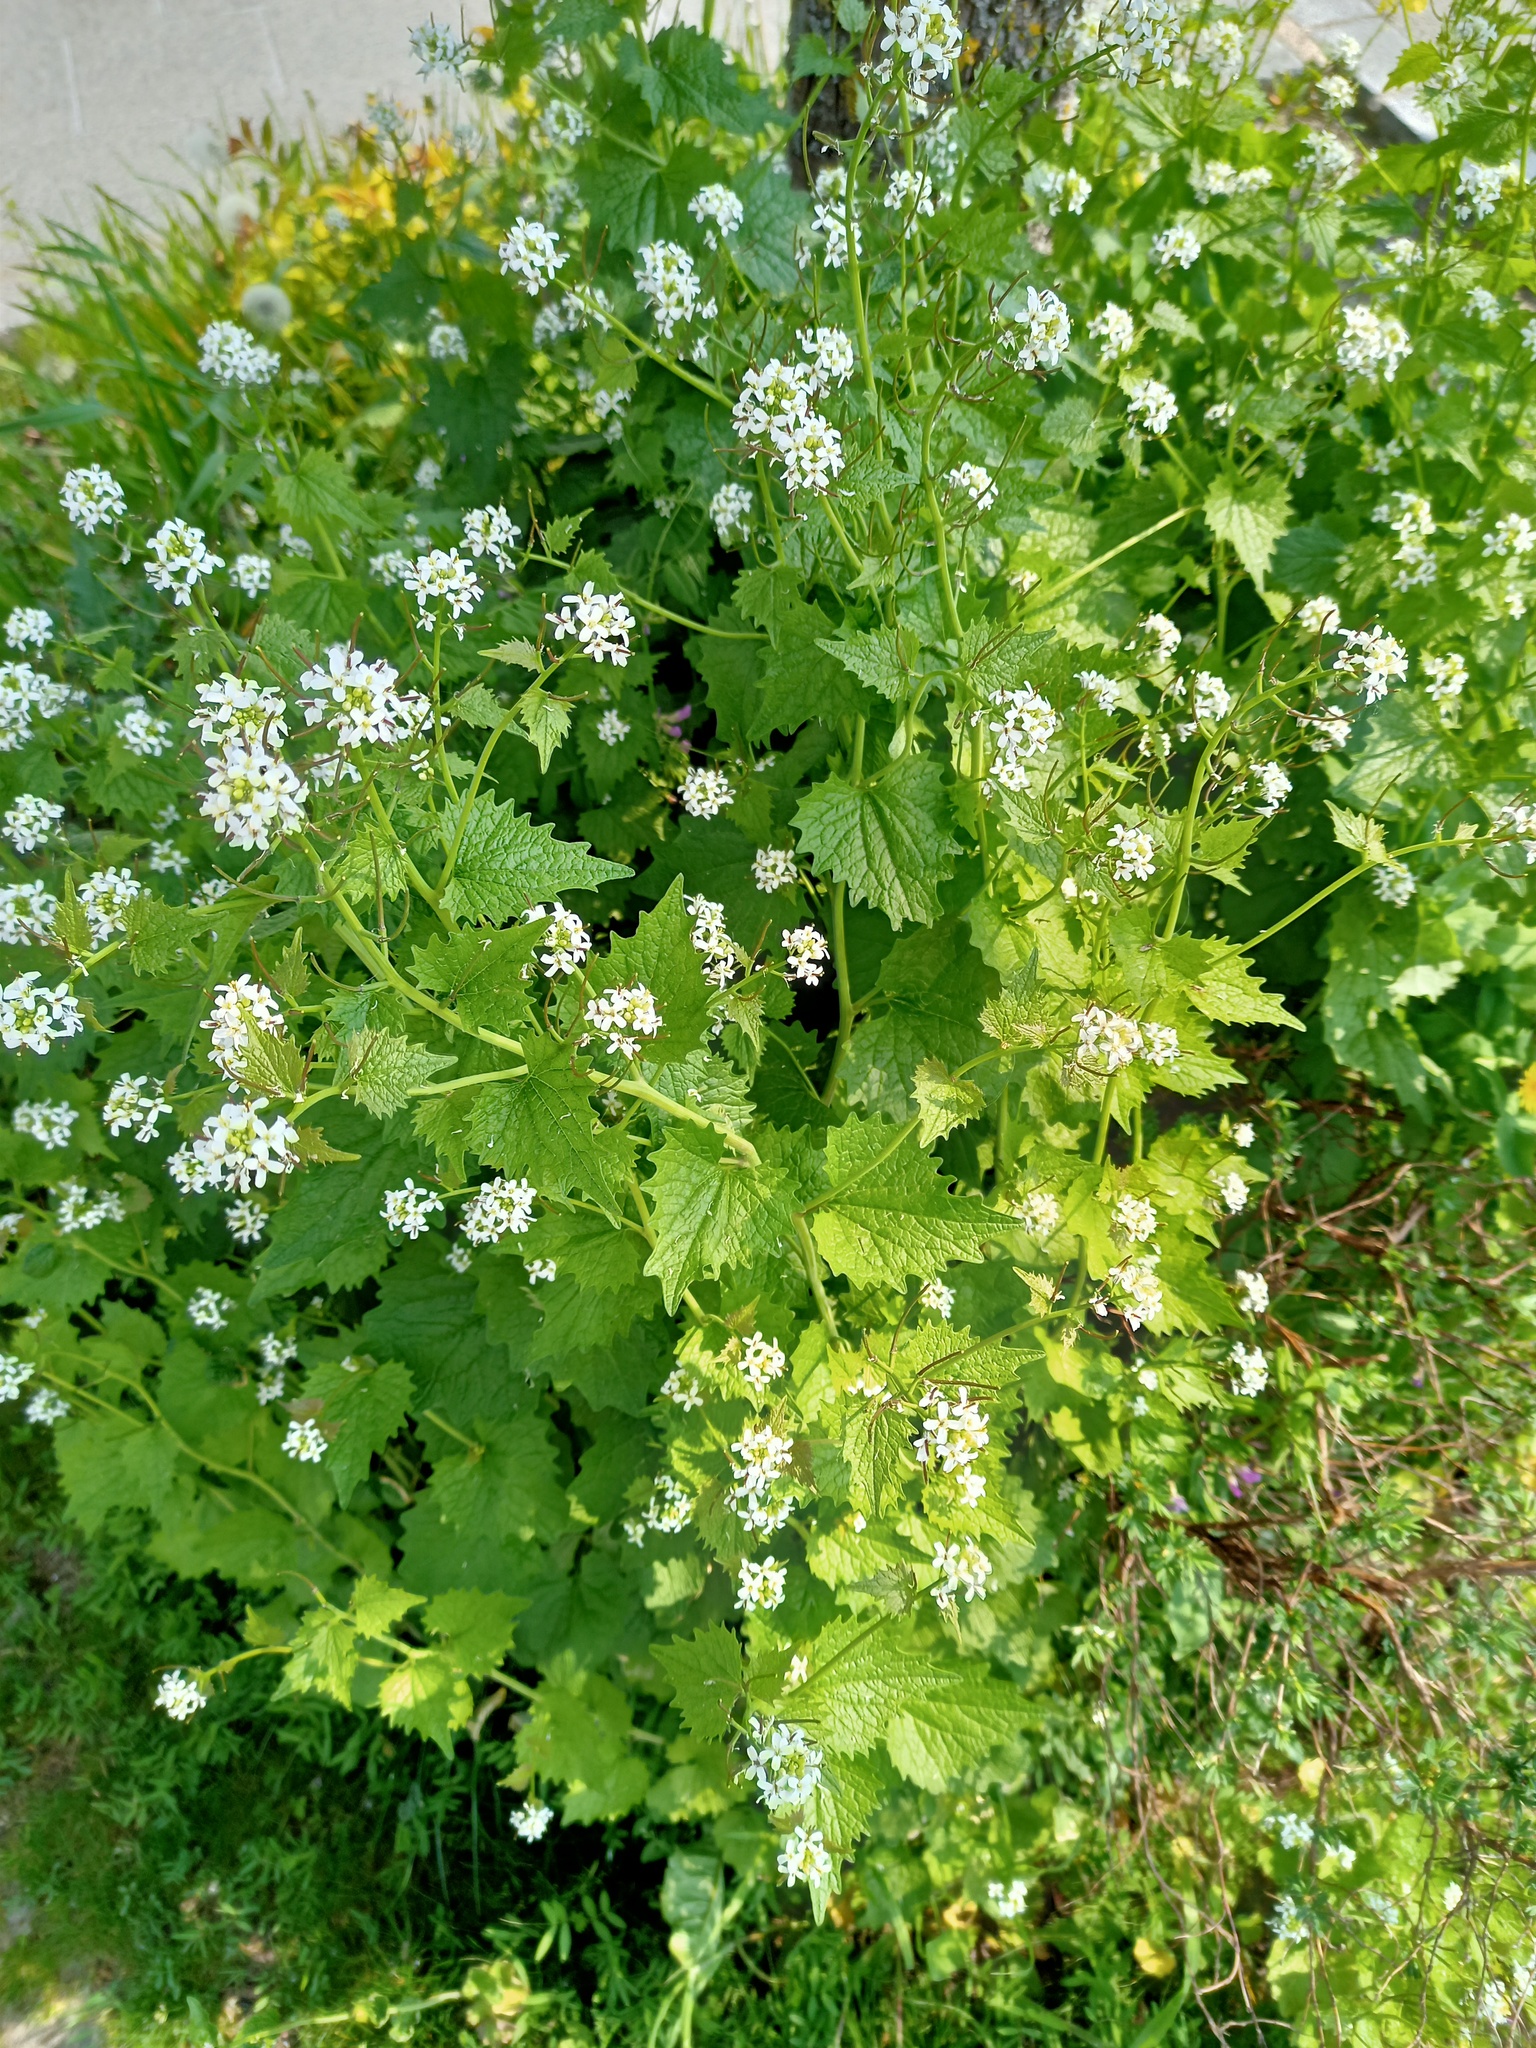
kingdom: Plantae
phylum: Tracheophyta
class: Magnoliopsida
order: Brassicales
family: Brassicaceae
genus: Alliaria
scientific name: Alliaria petiolata
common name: Garlic mustard
